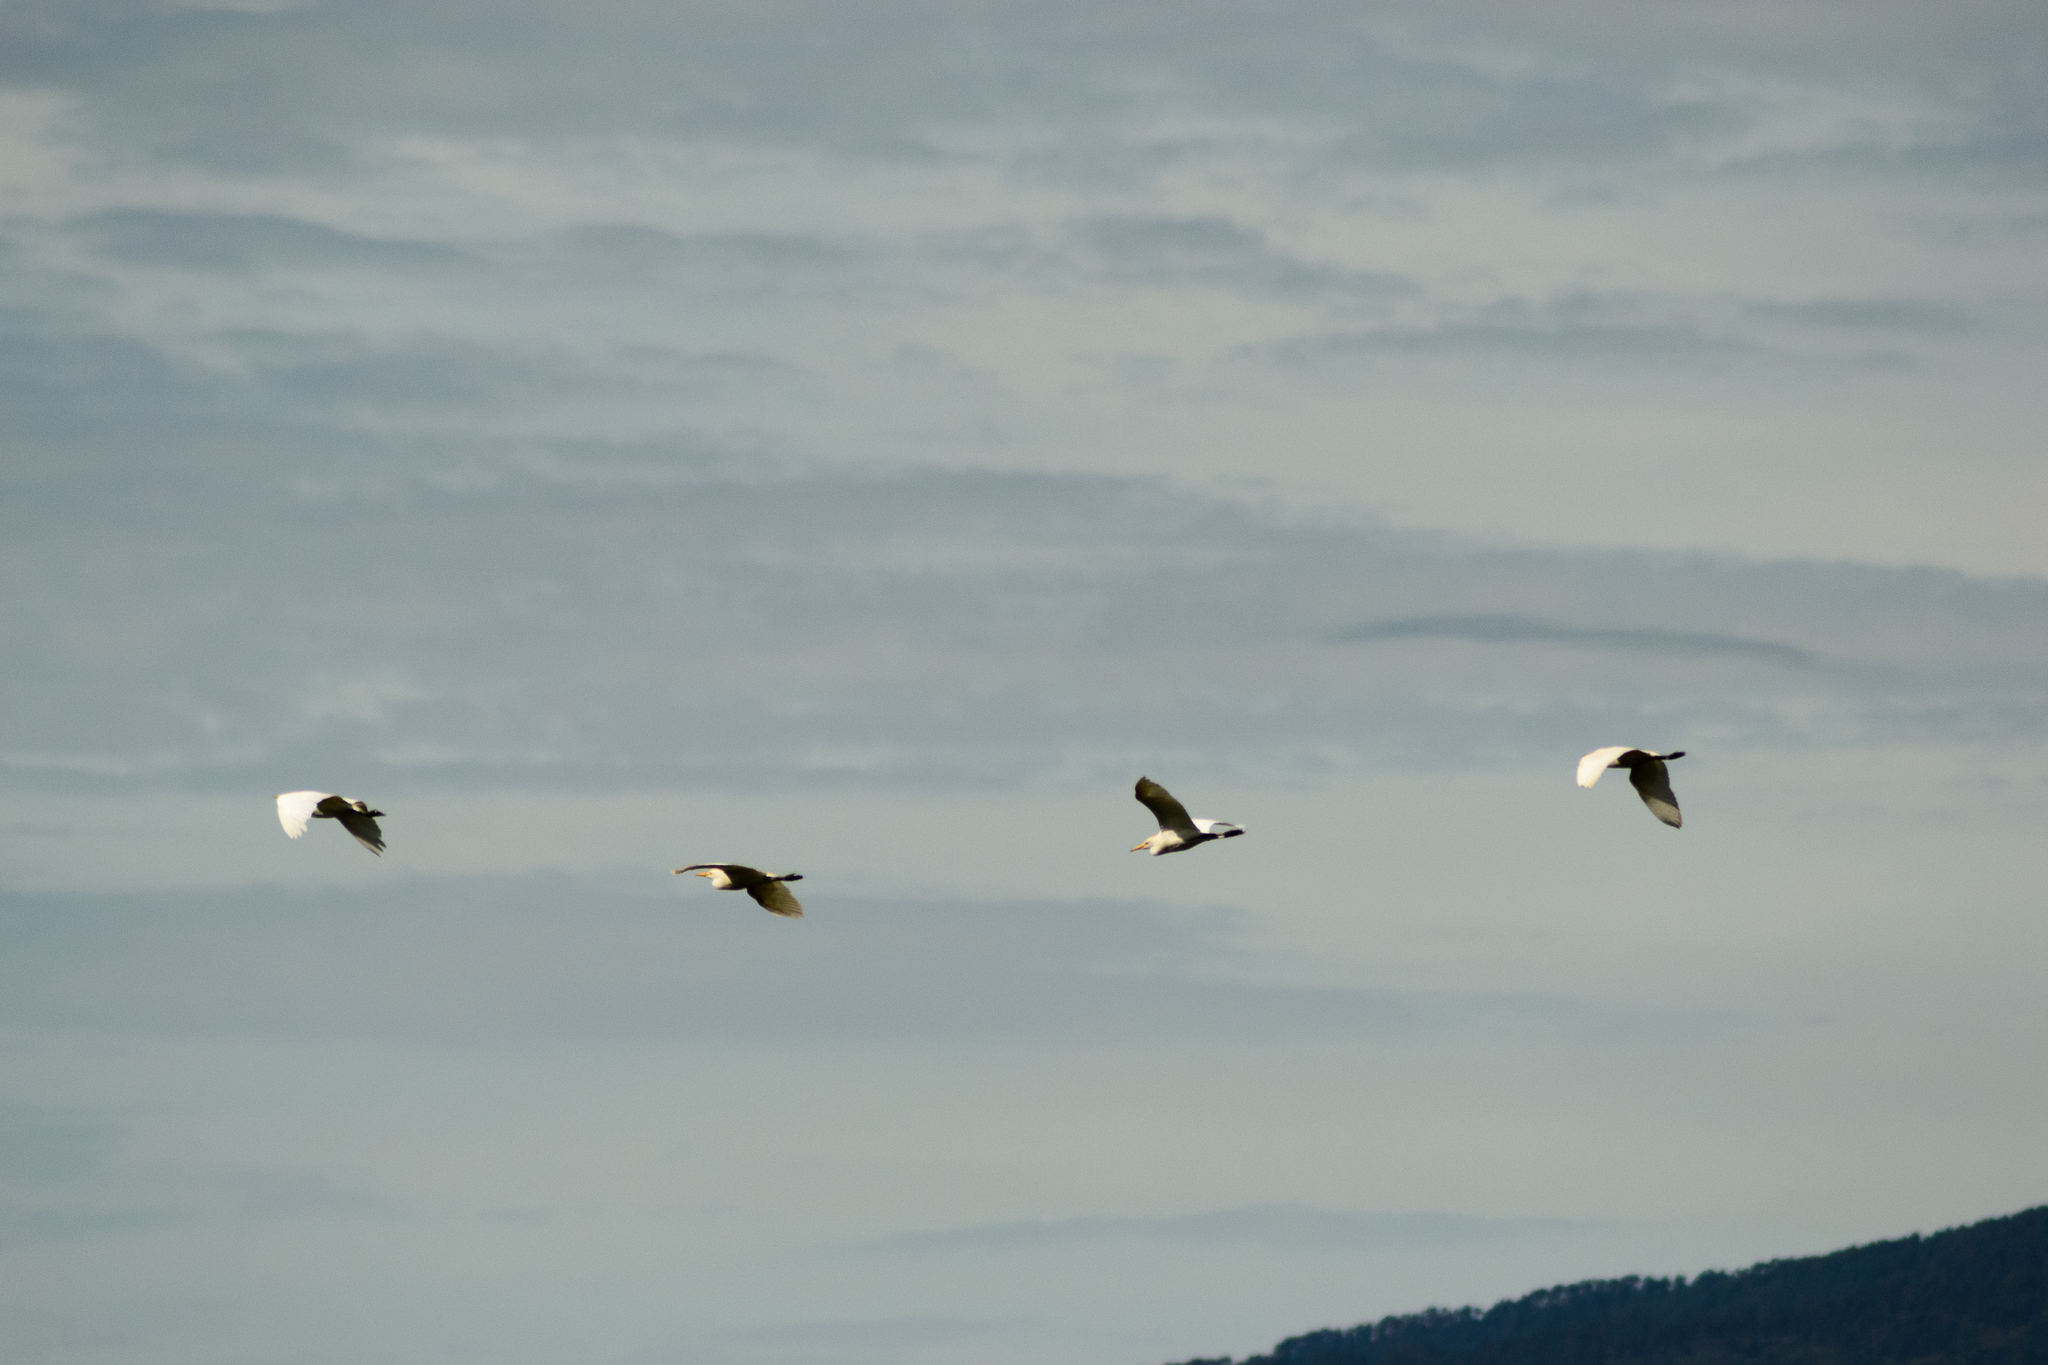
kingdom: Animalia
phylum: Chordata
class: Aves
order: Pelecaniformes
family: Ardeidae
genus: Bubulcus
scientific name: Bubulcus ibis
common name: Cattle egret
